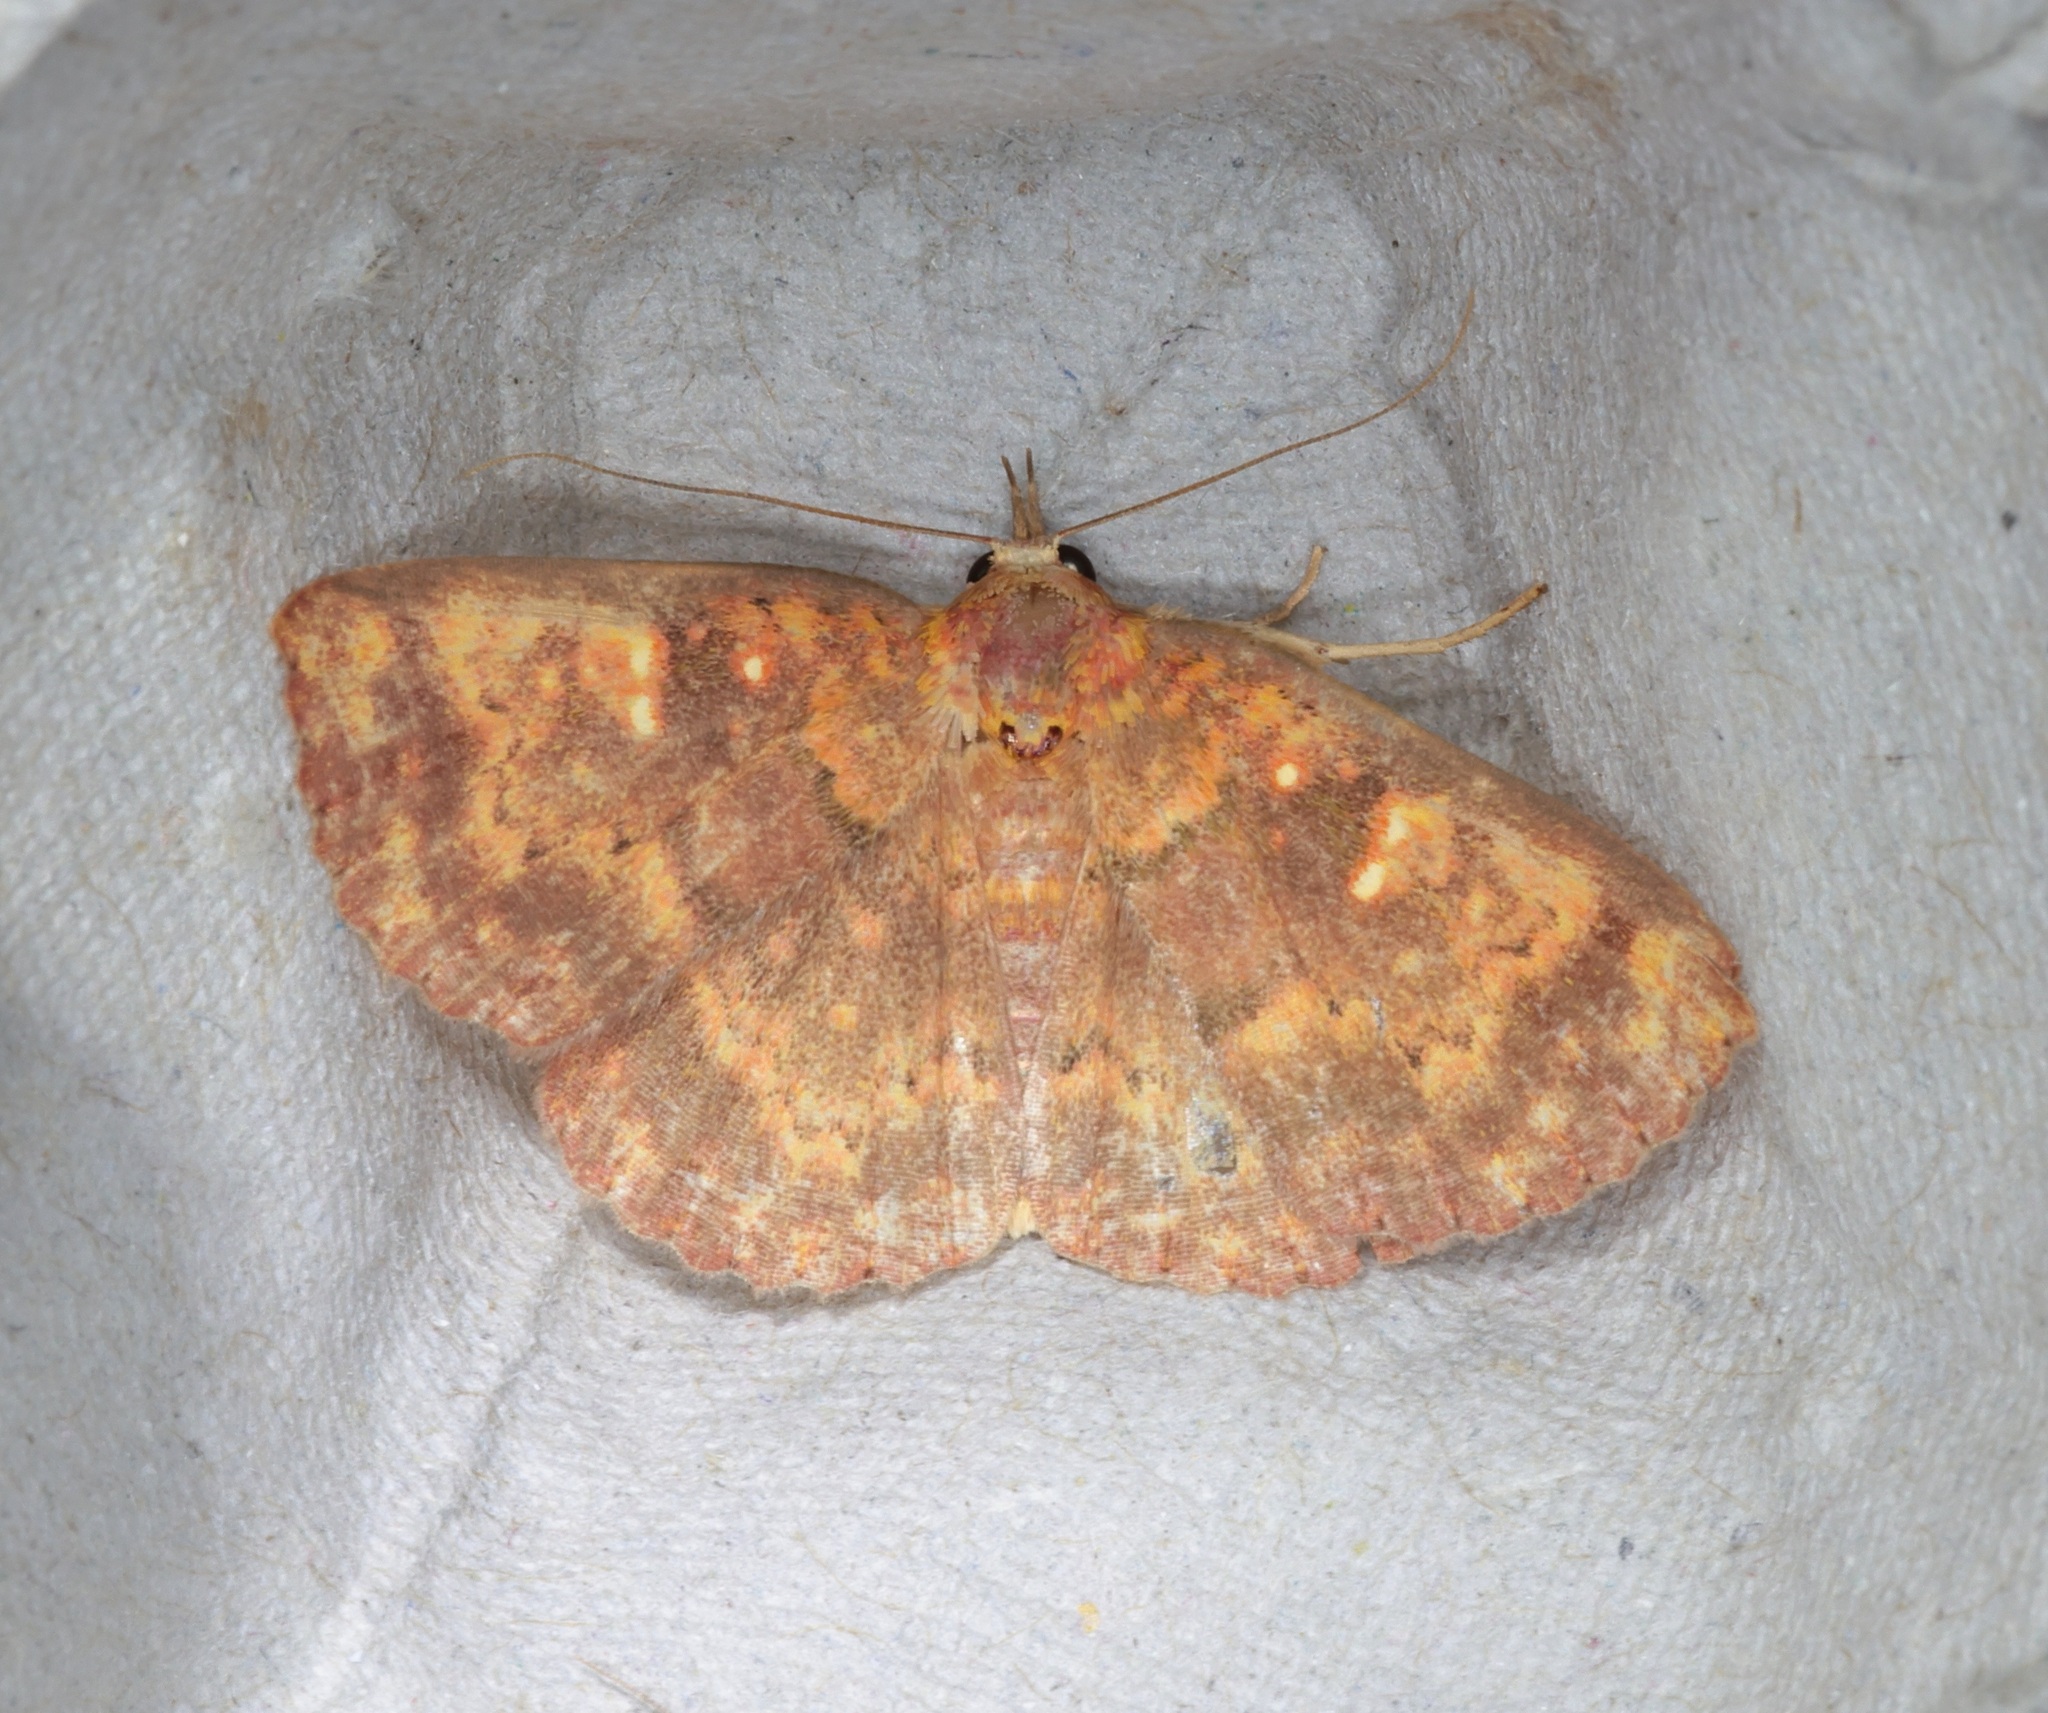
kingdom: Animalia
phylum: Arthropoda
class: Insecta
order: Lepidoptera
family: Erebidae
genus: Sarobides
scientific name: Sarobides inconclusa
